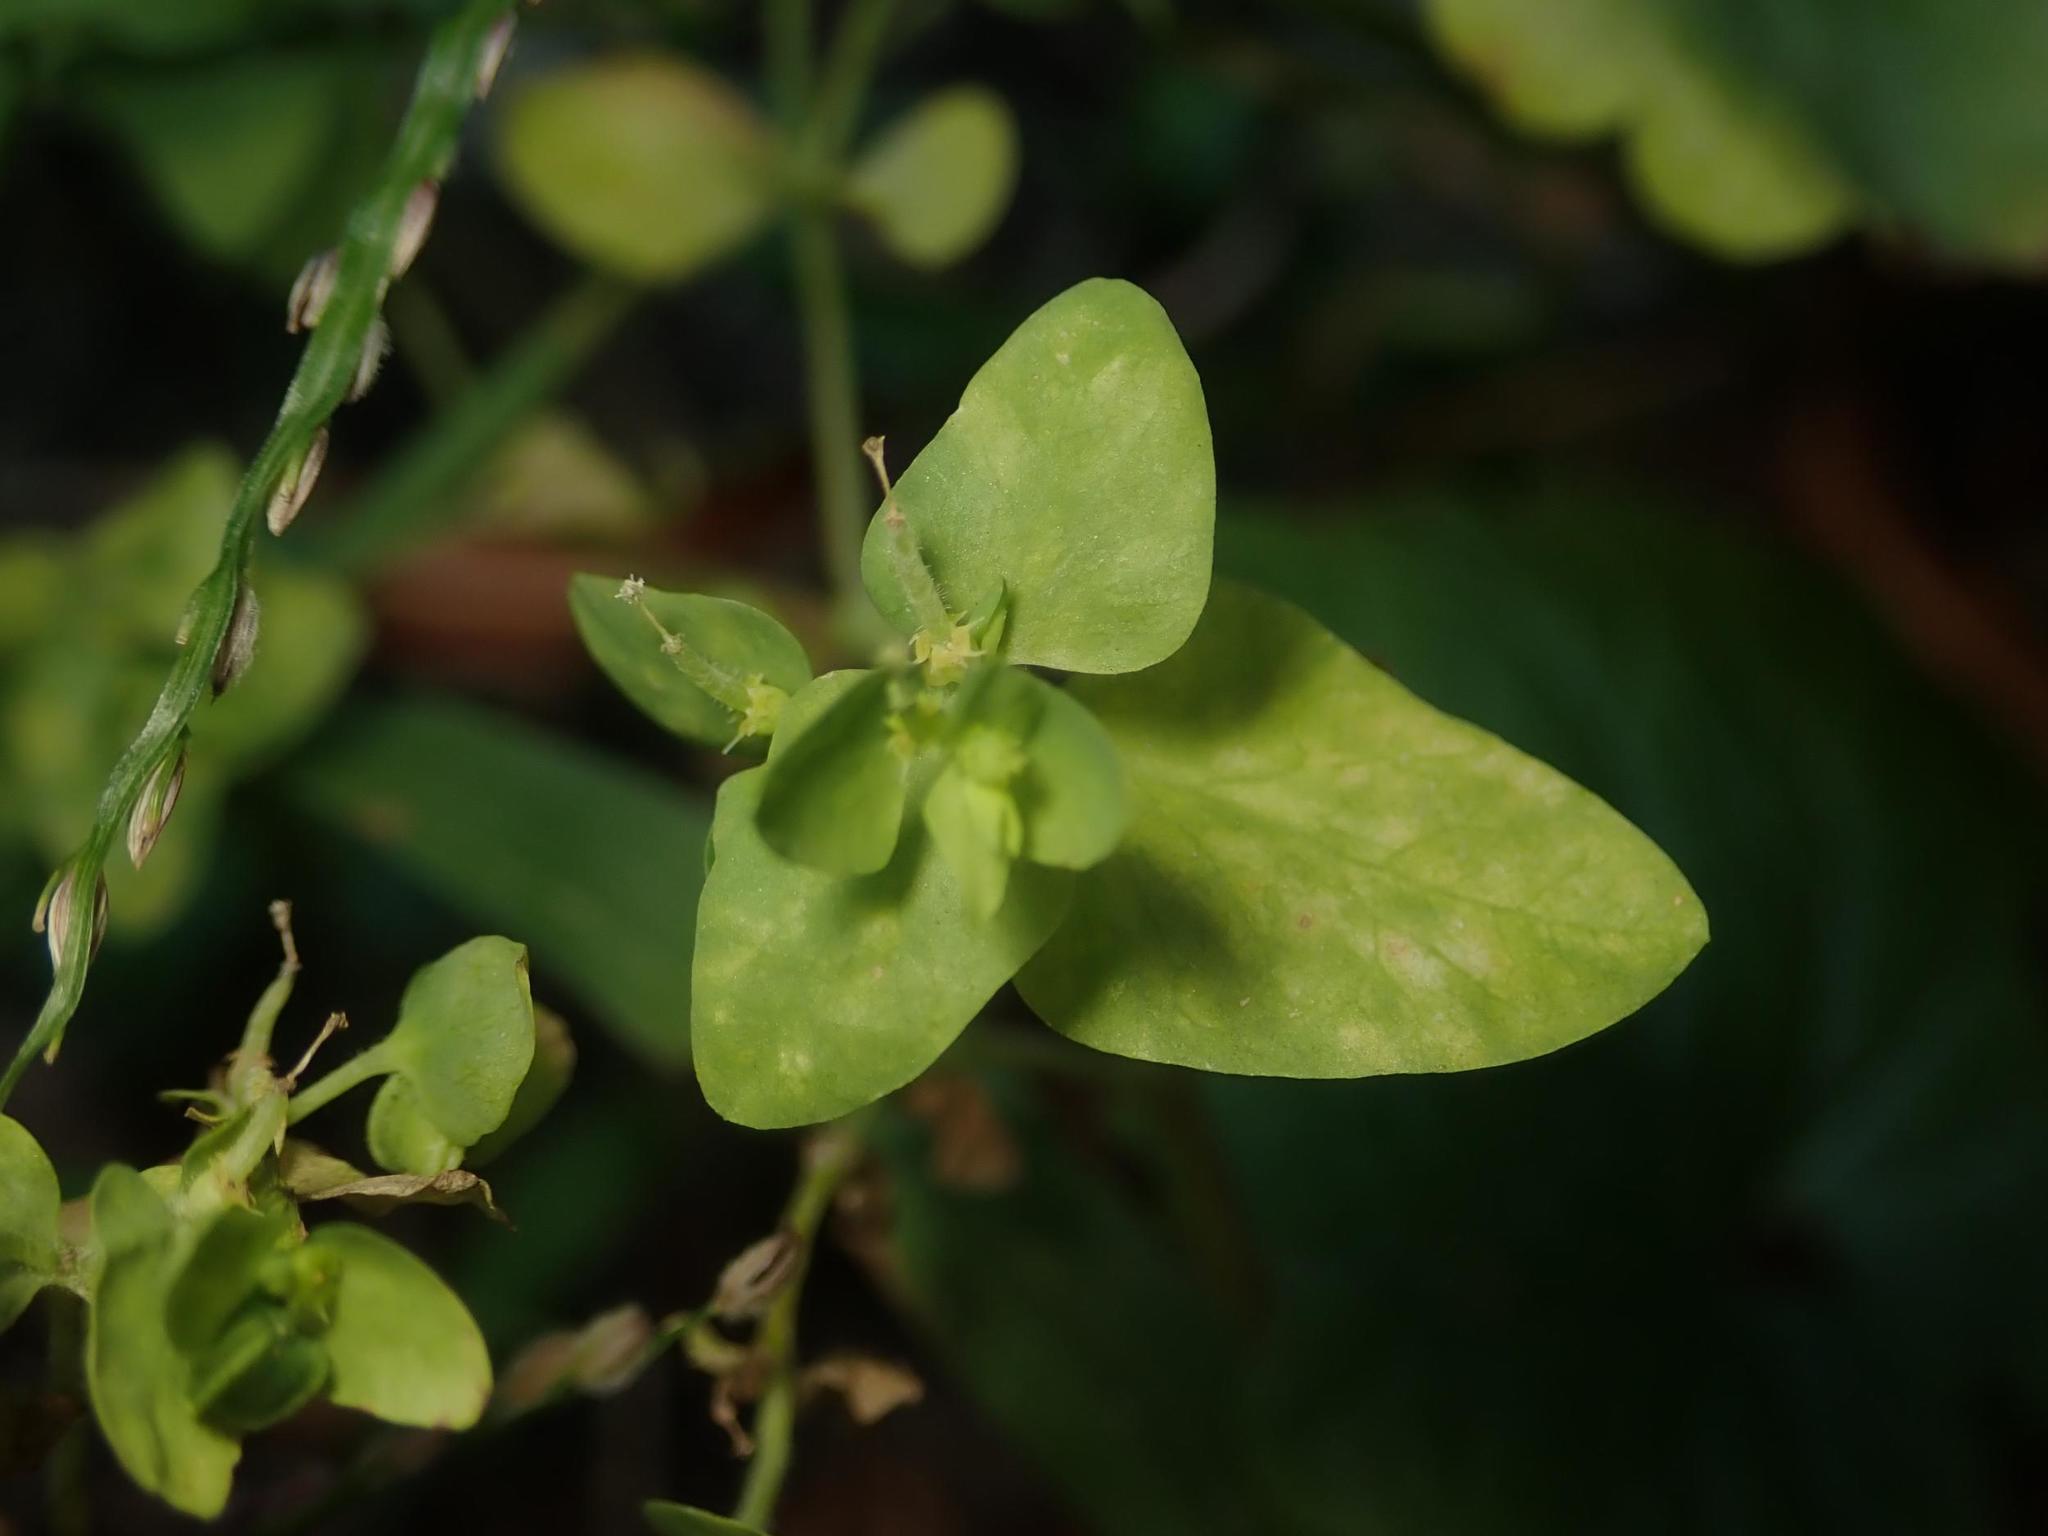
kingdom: Plantae
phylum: Tracheophyta
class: Magnoliopsida
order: Malpighiales
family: Euphorbiaceae
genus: Euphorbia
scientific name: Euphorbia peplus
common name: Petty spurge
